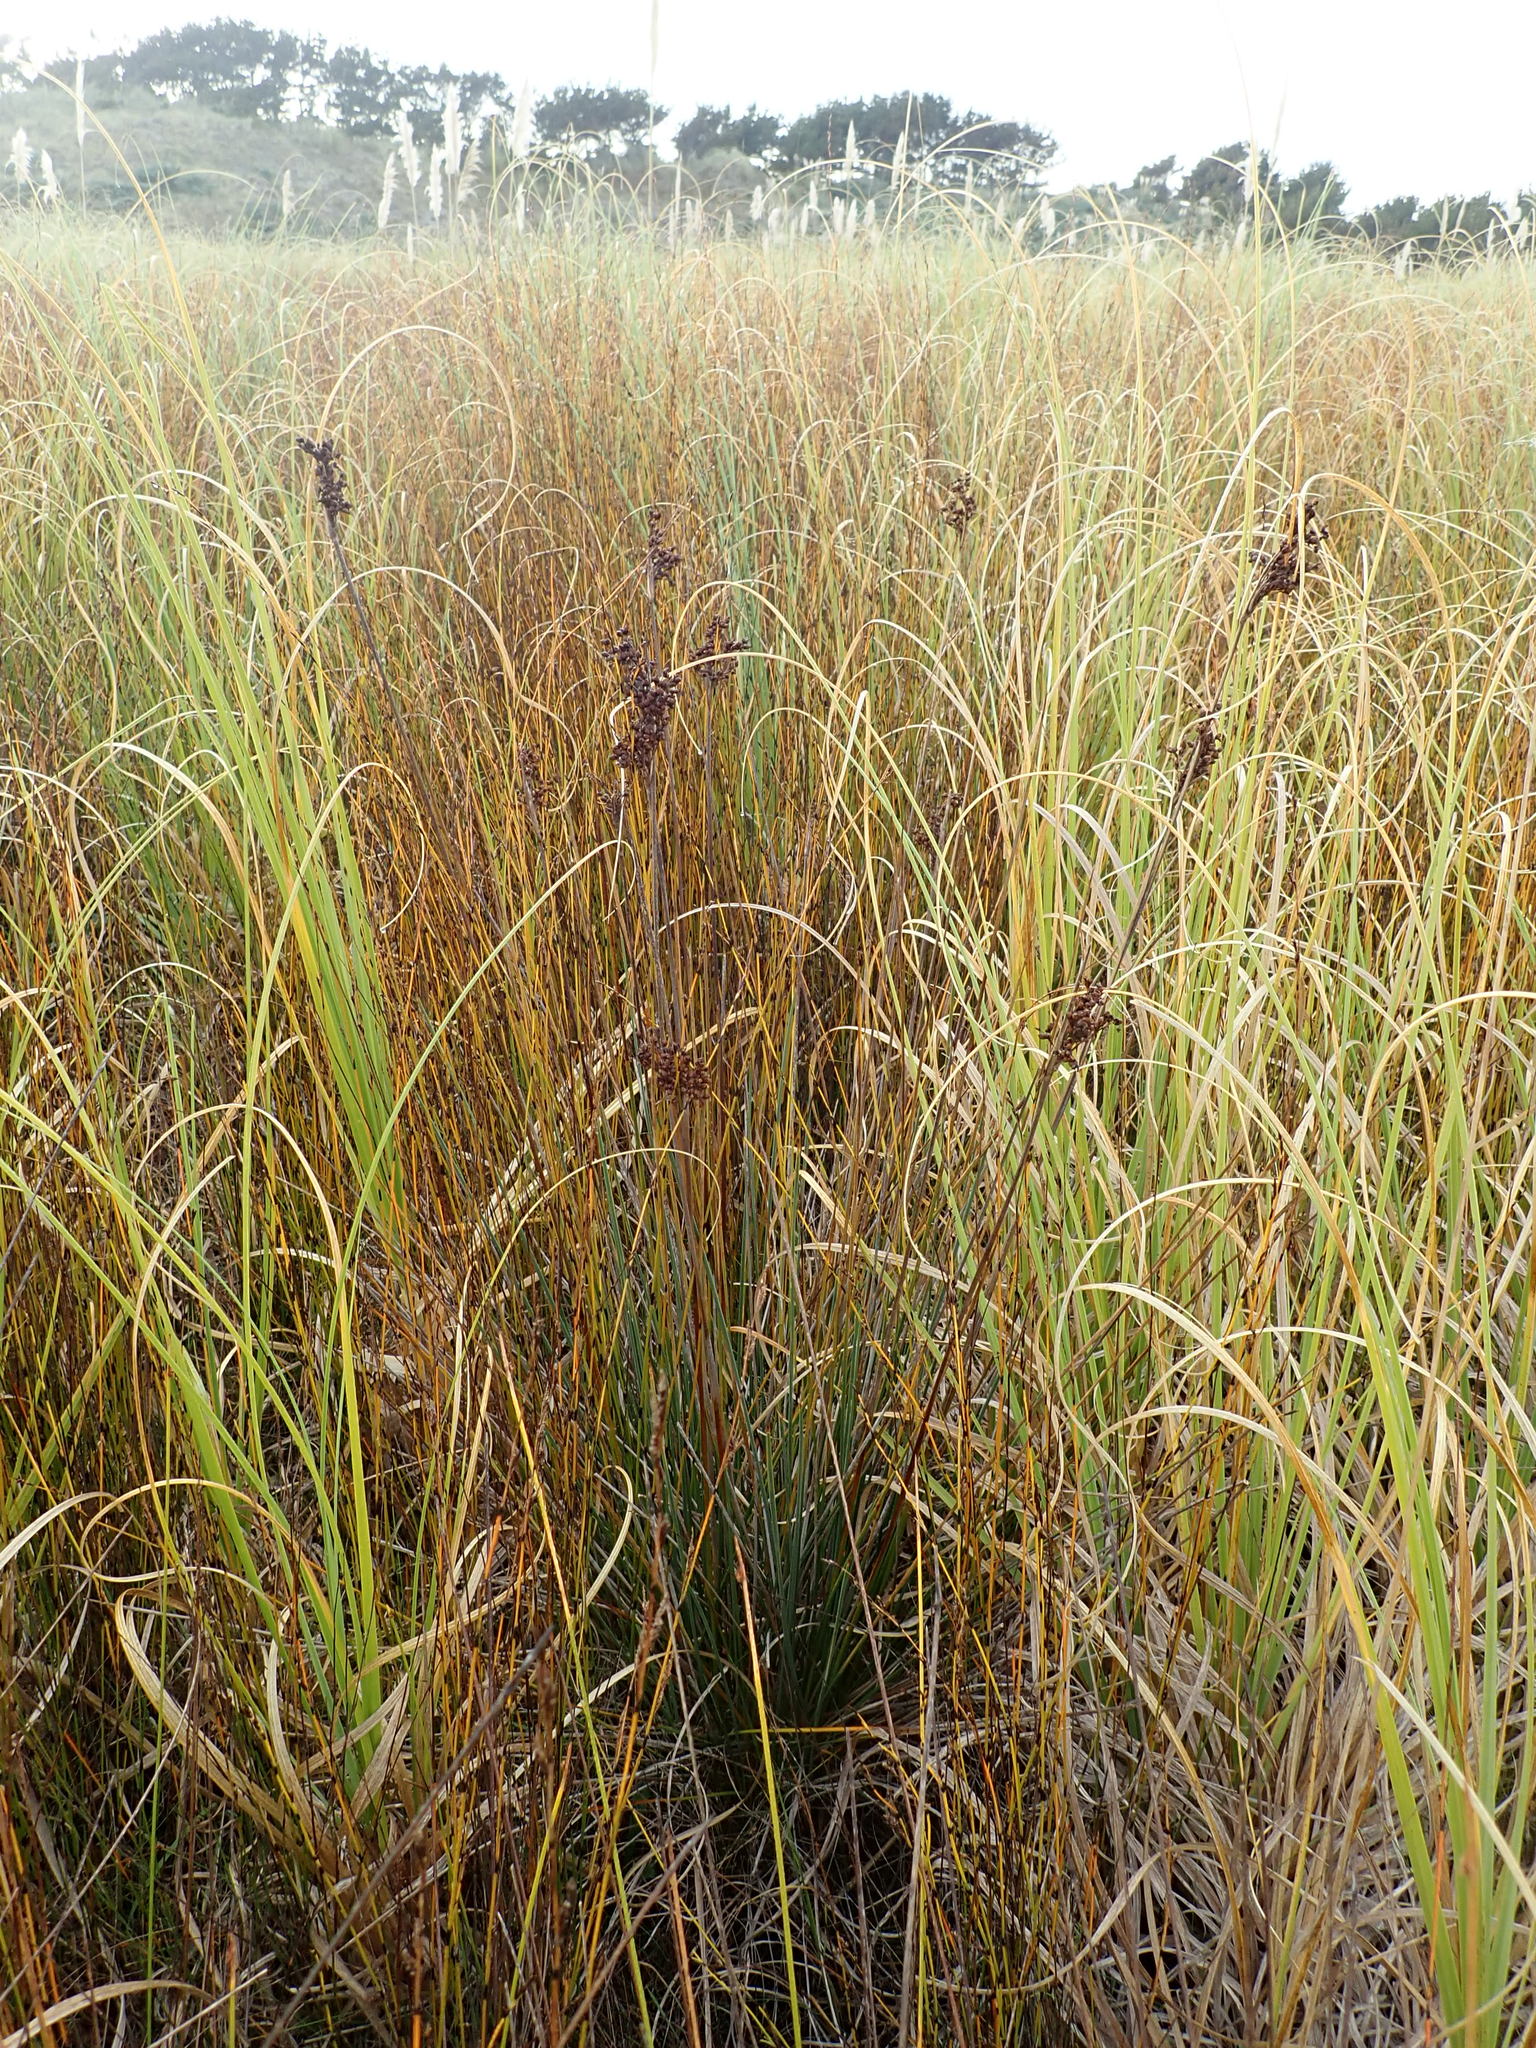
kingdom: Plantae
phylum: Tracheophyta
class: Liliopsida
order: Poales
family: Juncaceae
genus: Juncus
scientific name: Juncus acutus
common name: Sharp rush
